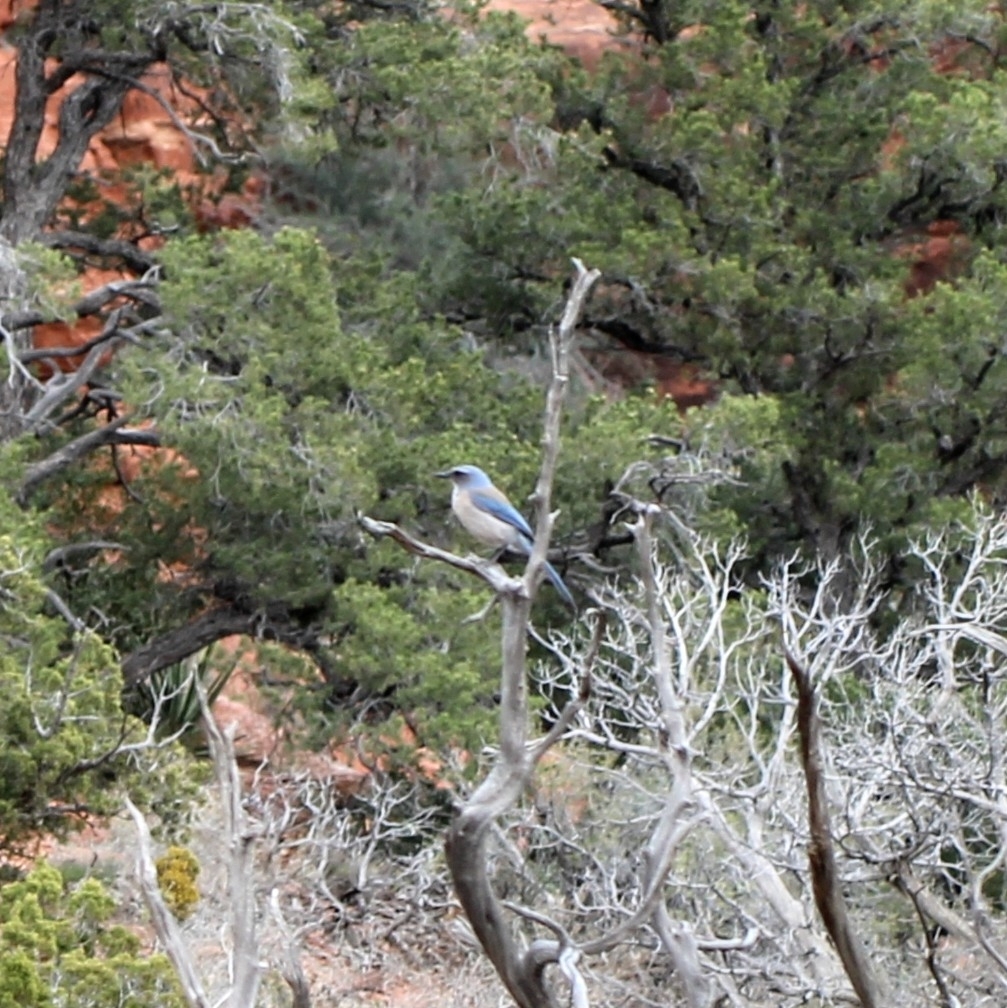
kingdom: Animalia
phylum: Chordata
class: Aves
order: Passeriformes
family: Corvidae
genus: Aphelocoma
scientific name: Aphelocoma woodhouseii
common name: Woodhouse's scrub-jay
